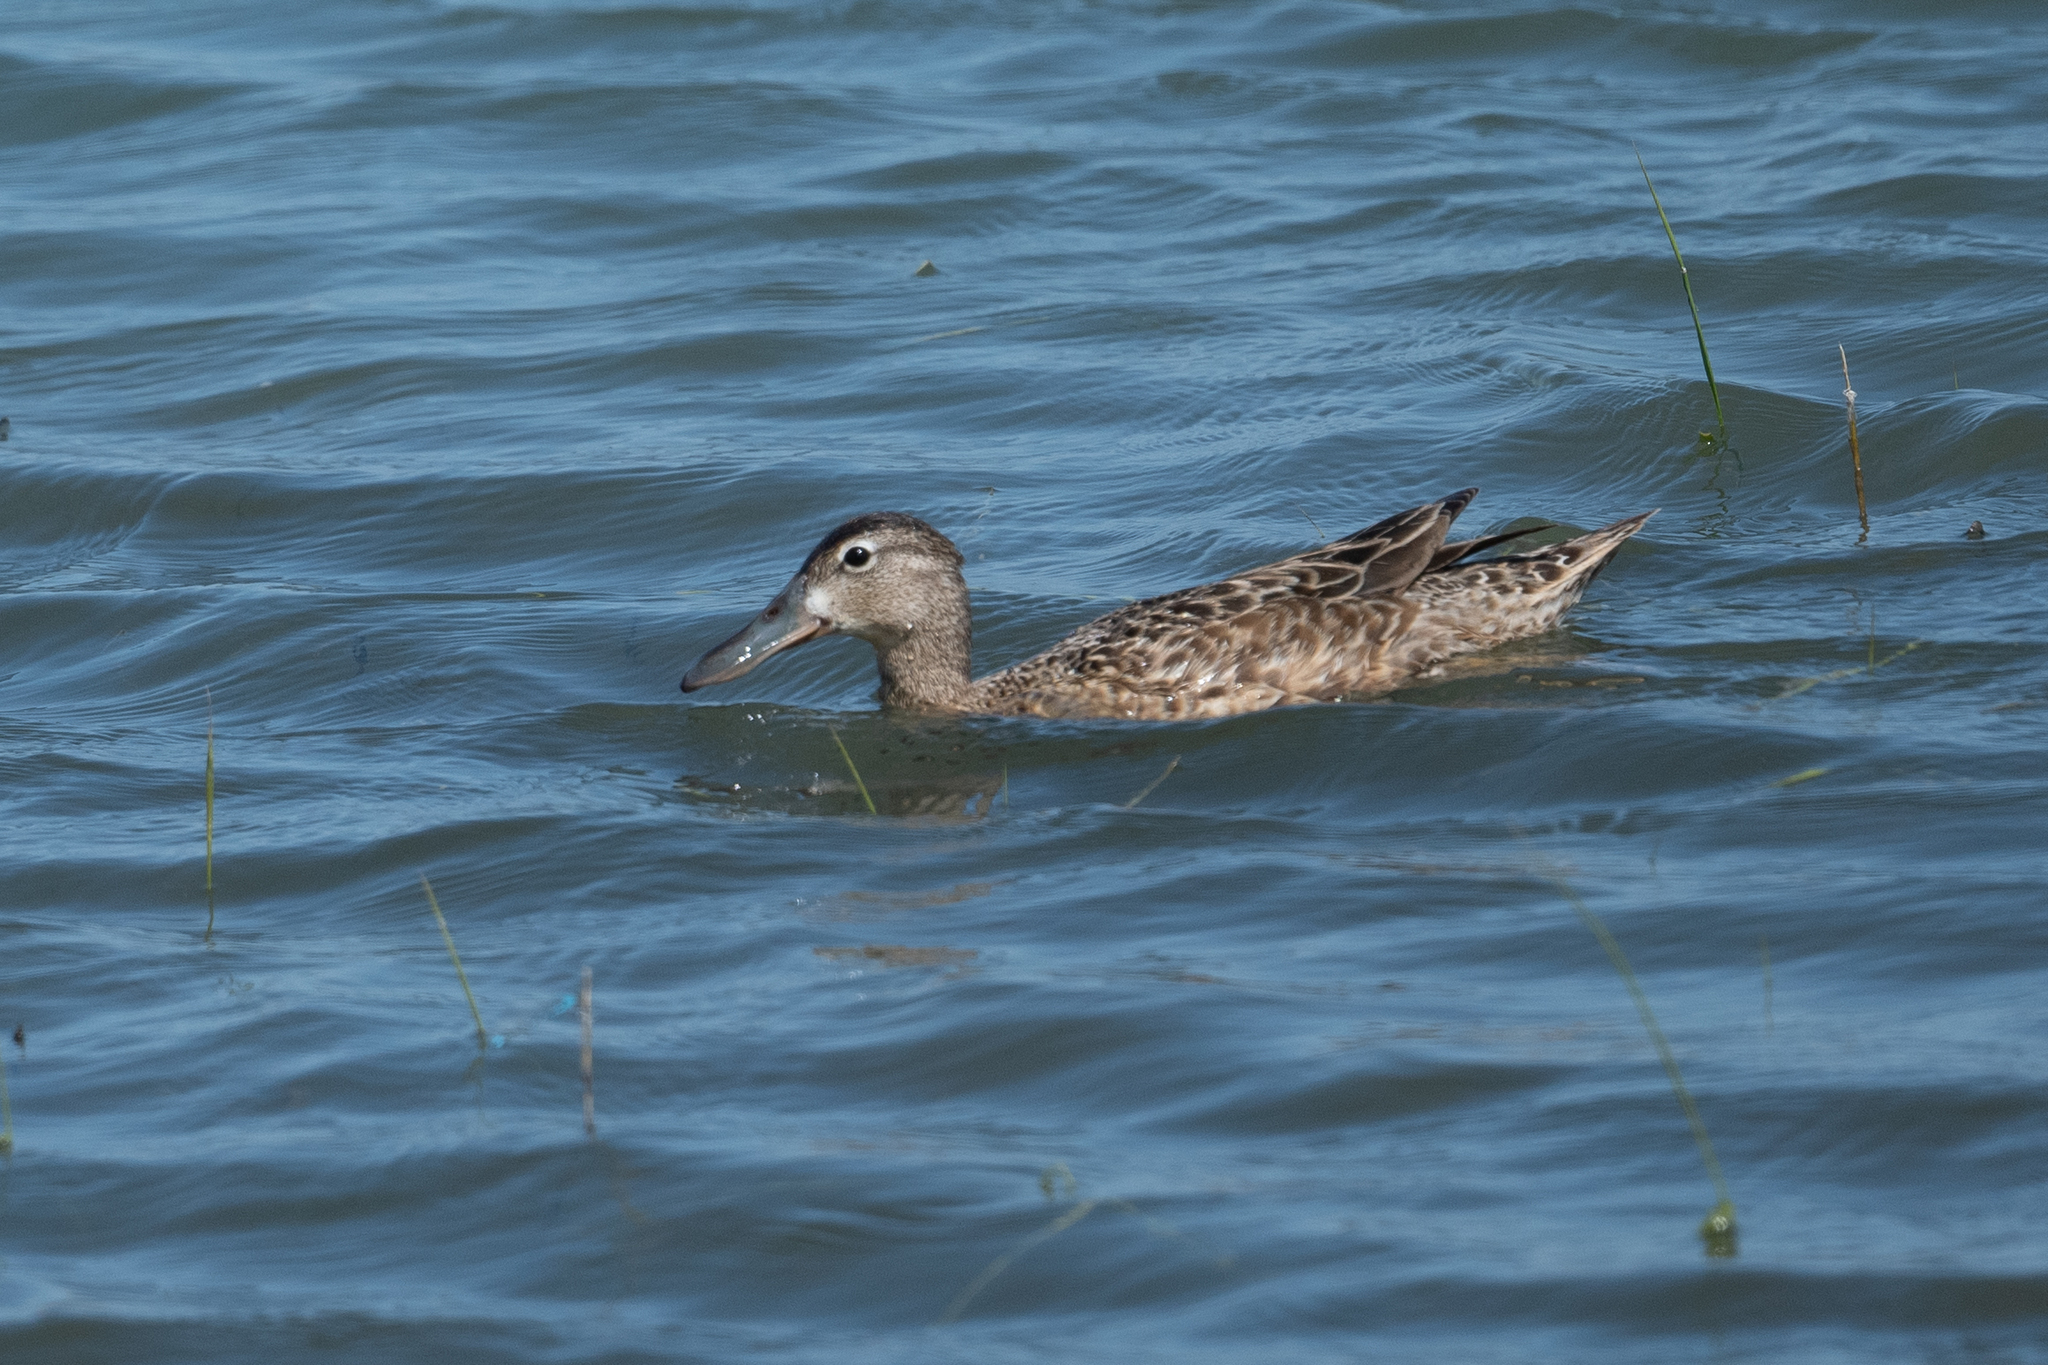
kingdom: Animalia
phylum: Chordata
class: Aves
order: Anseriformes
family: Anatidae
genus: Spatula
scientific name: Spatula cyanoptera
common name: Cinnamon teal
